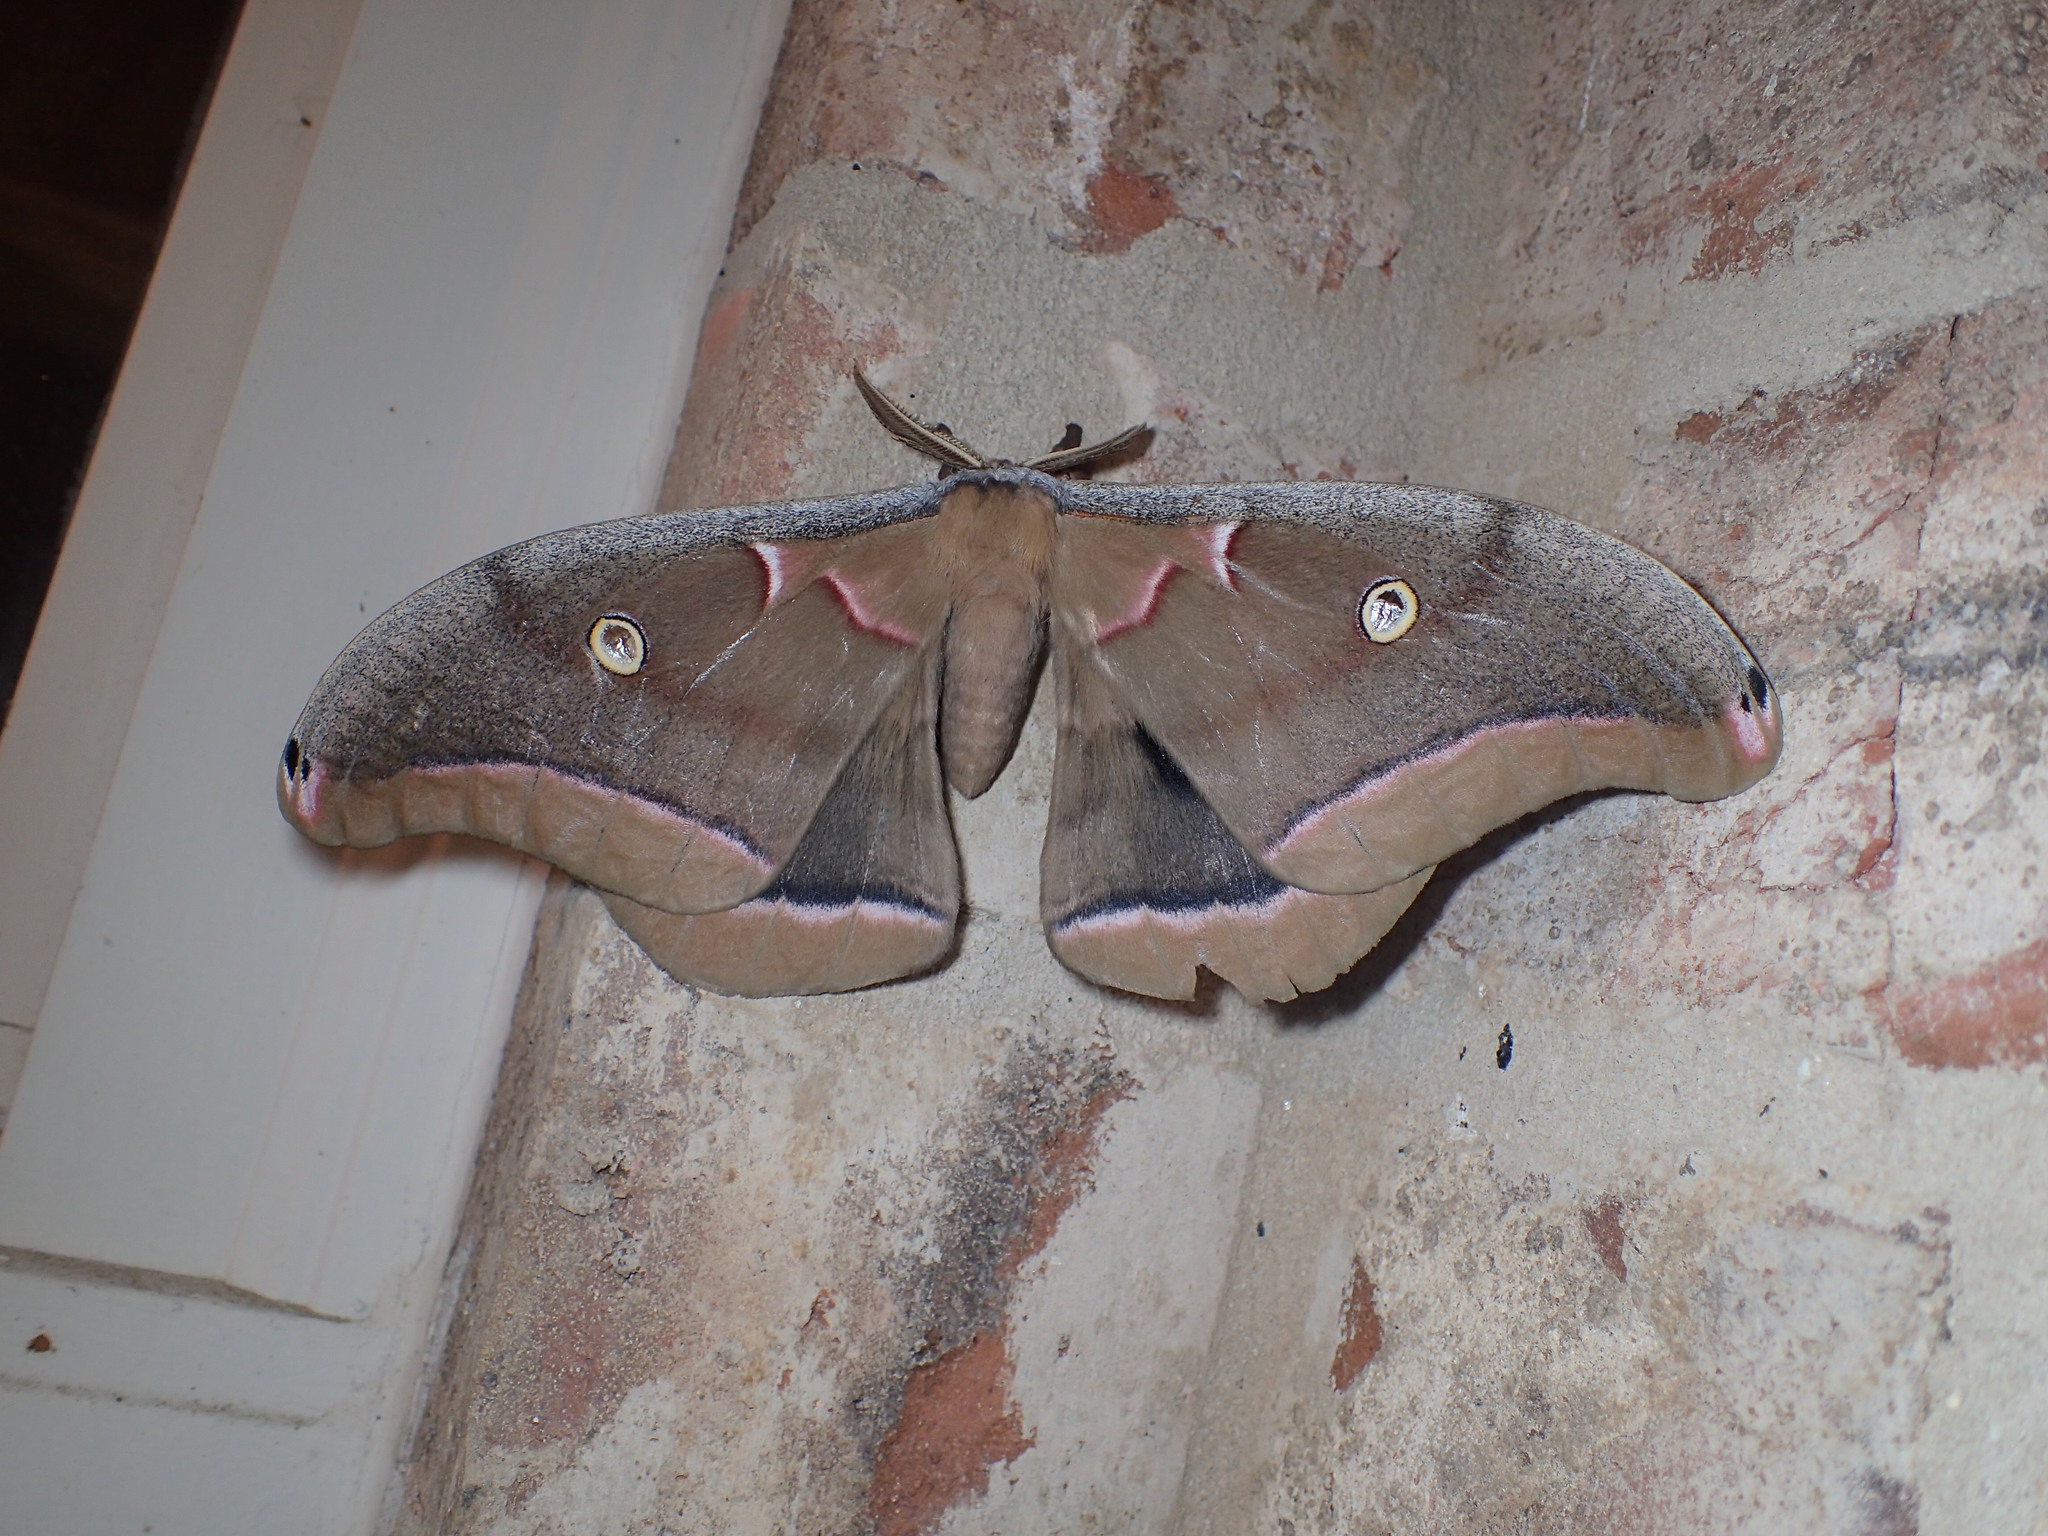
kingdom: Animalia
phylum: Arthropoda
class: Insecta
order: Lepidoptera
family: Saturniidae
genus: Antheraea
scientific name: Antheraea polyphemus
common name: Polyphemus moth
